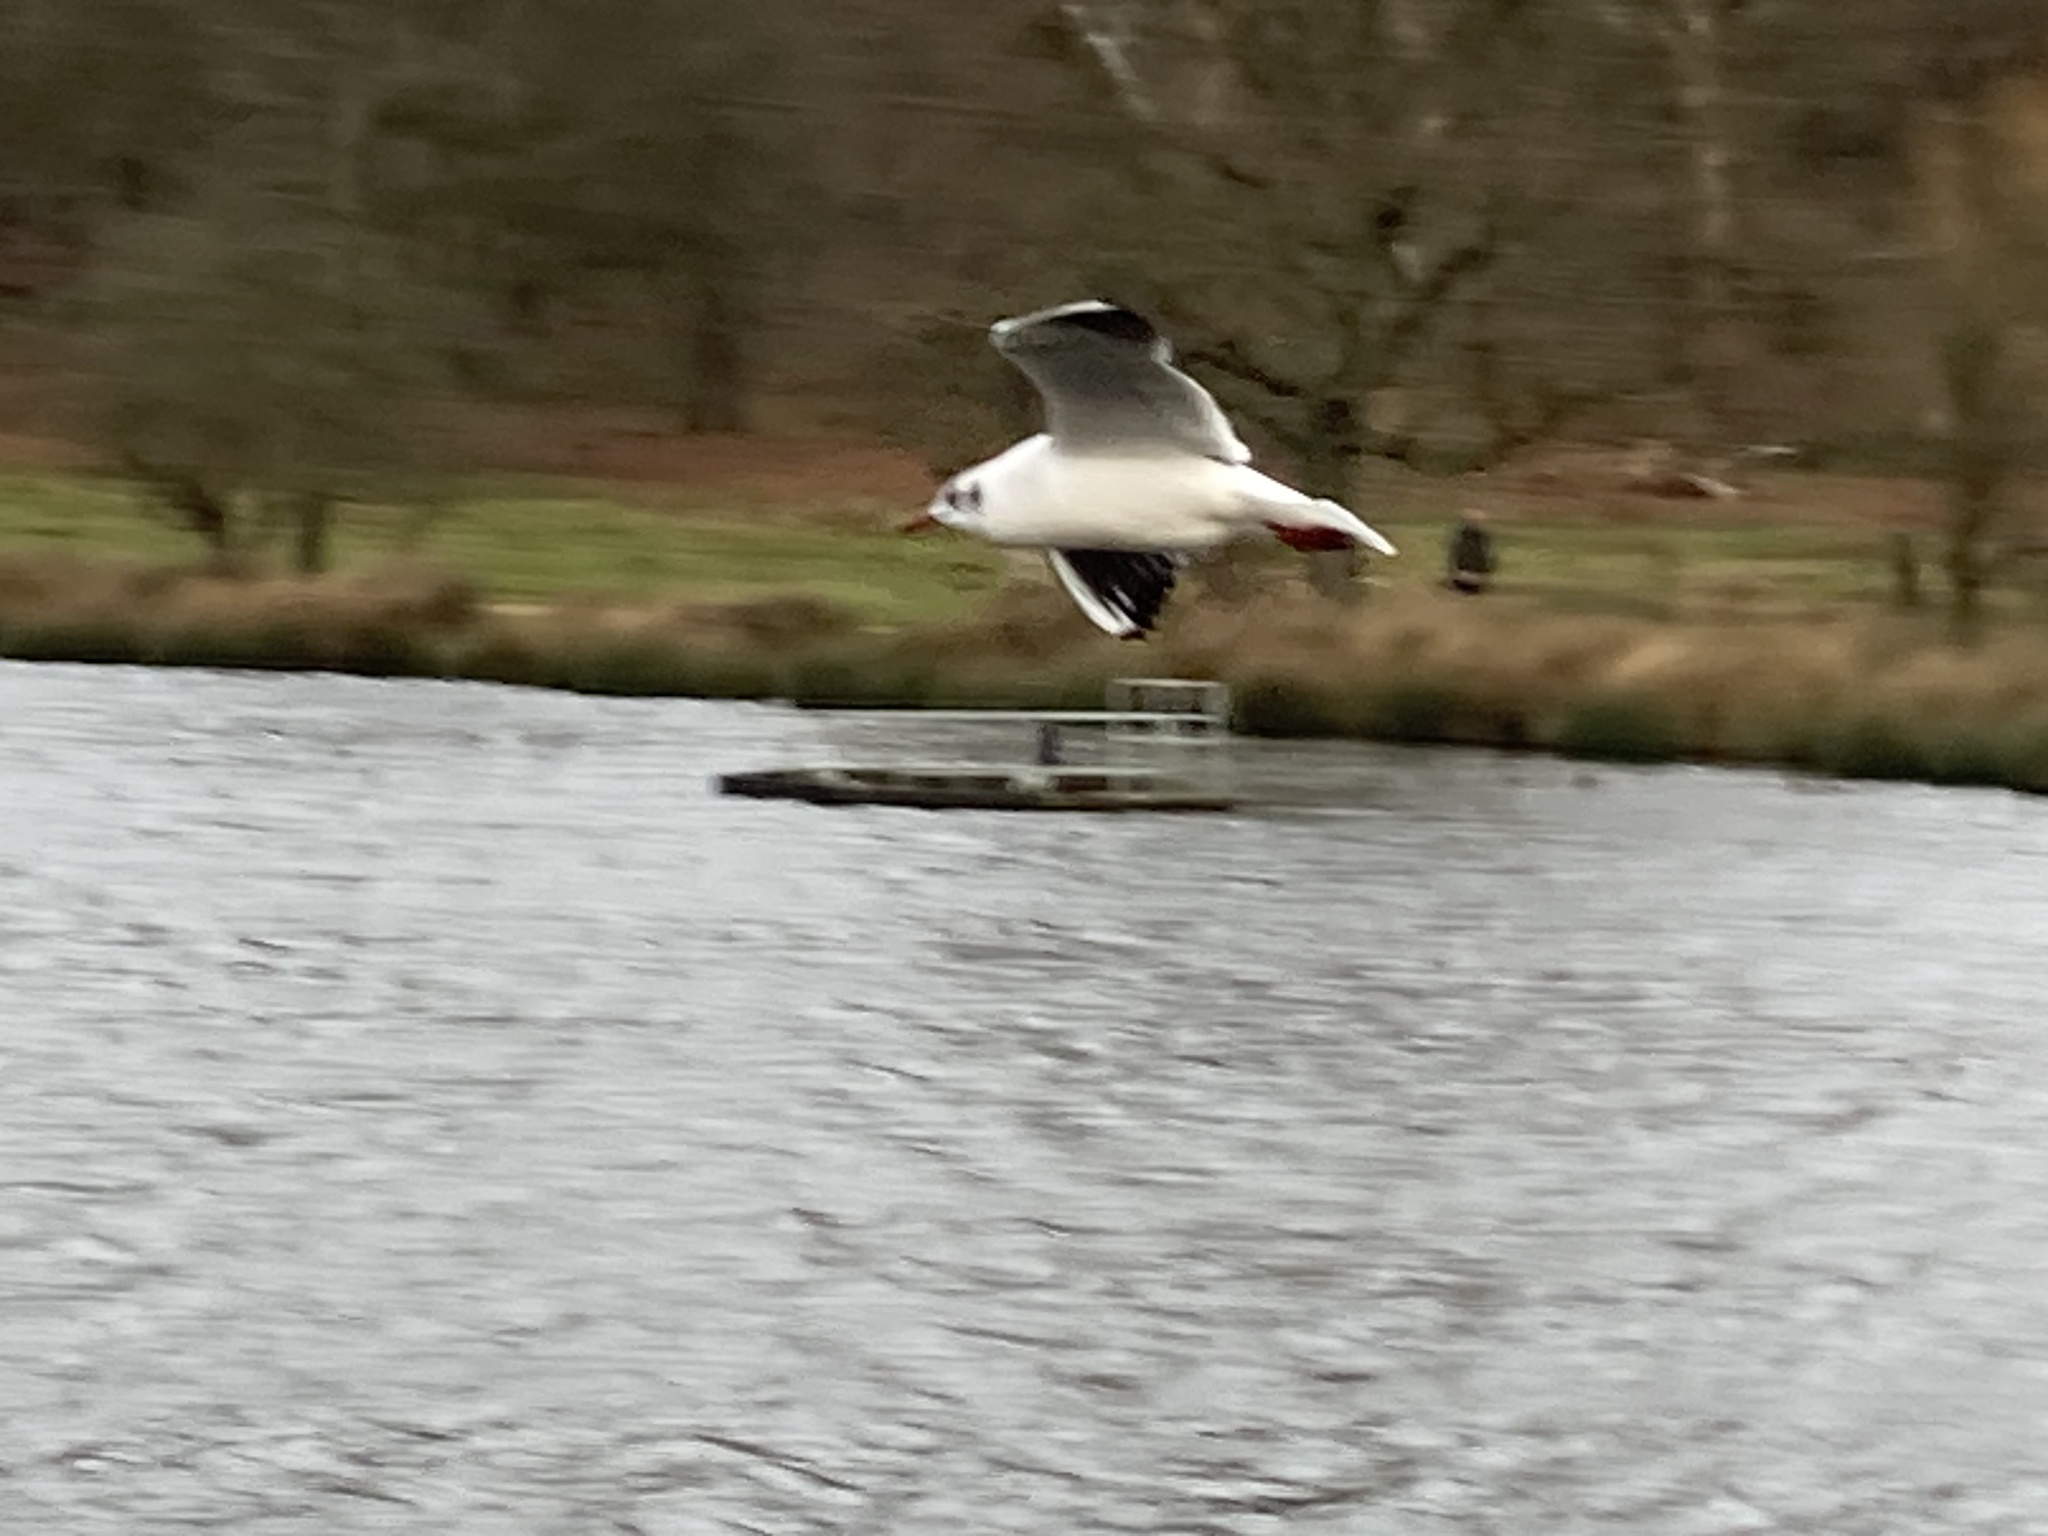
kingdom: Animalia
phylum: Chordata
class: Aves
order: Charadriiformes
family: Laridae
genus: Chroicocephalus
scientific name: Chroicocephalus ridibundus
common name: Black-headed gull
